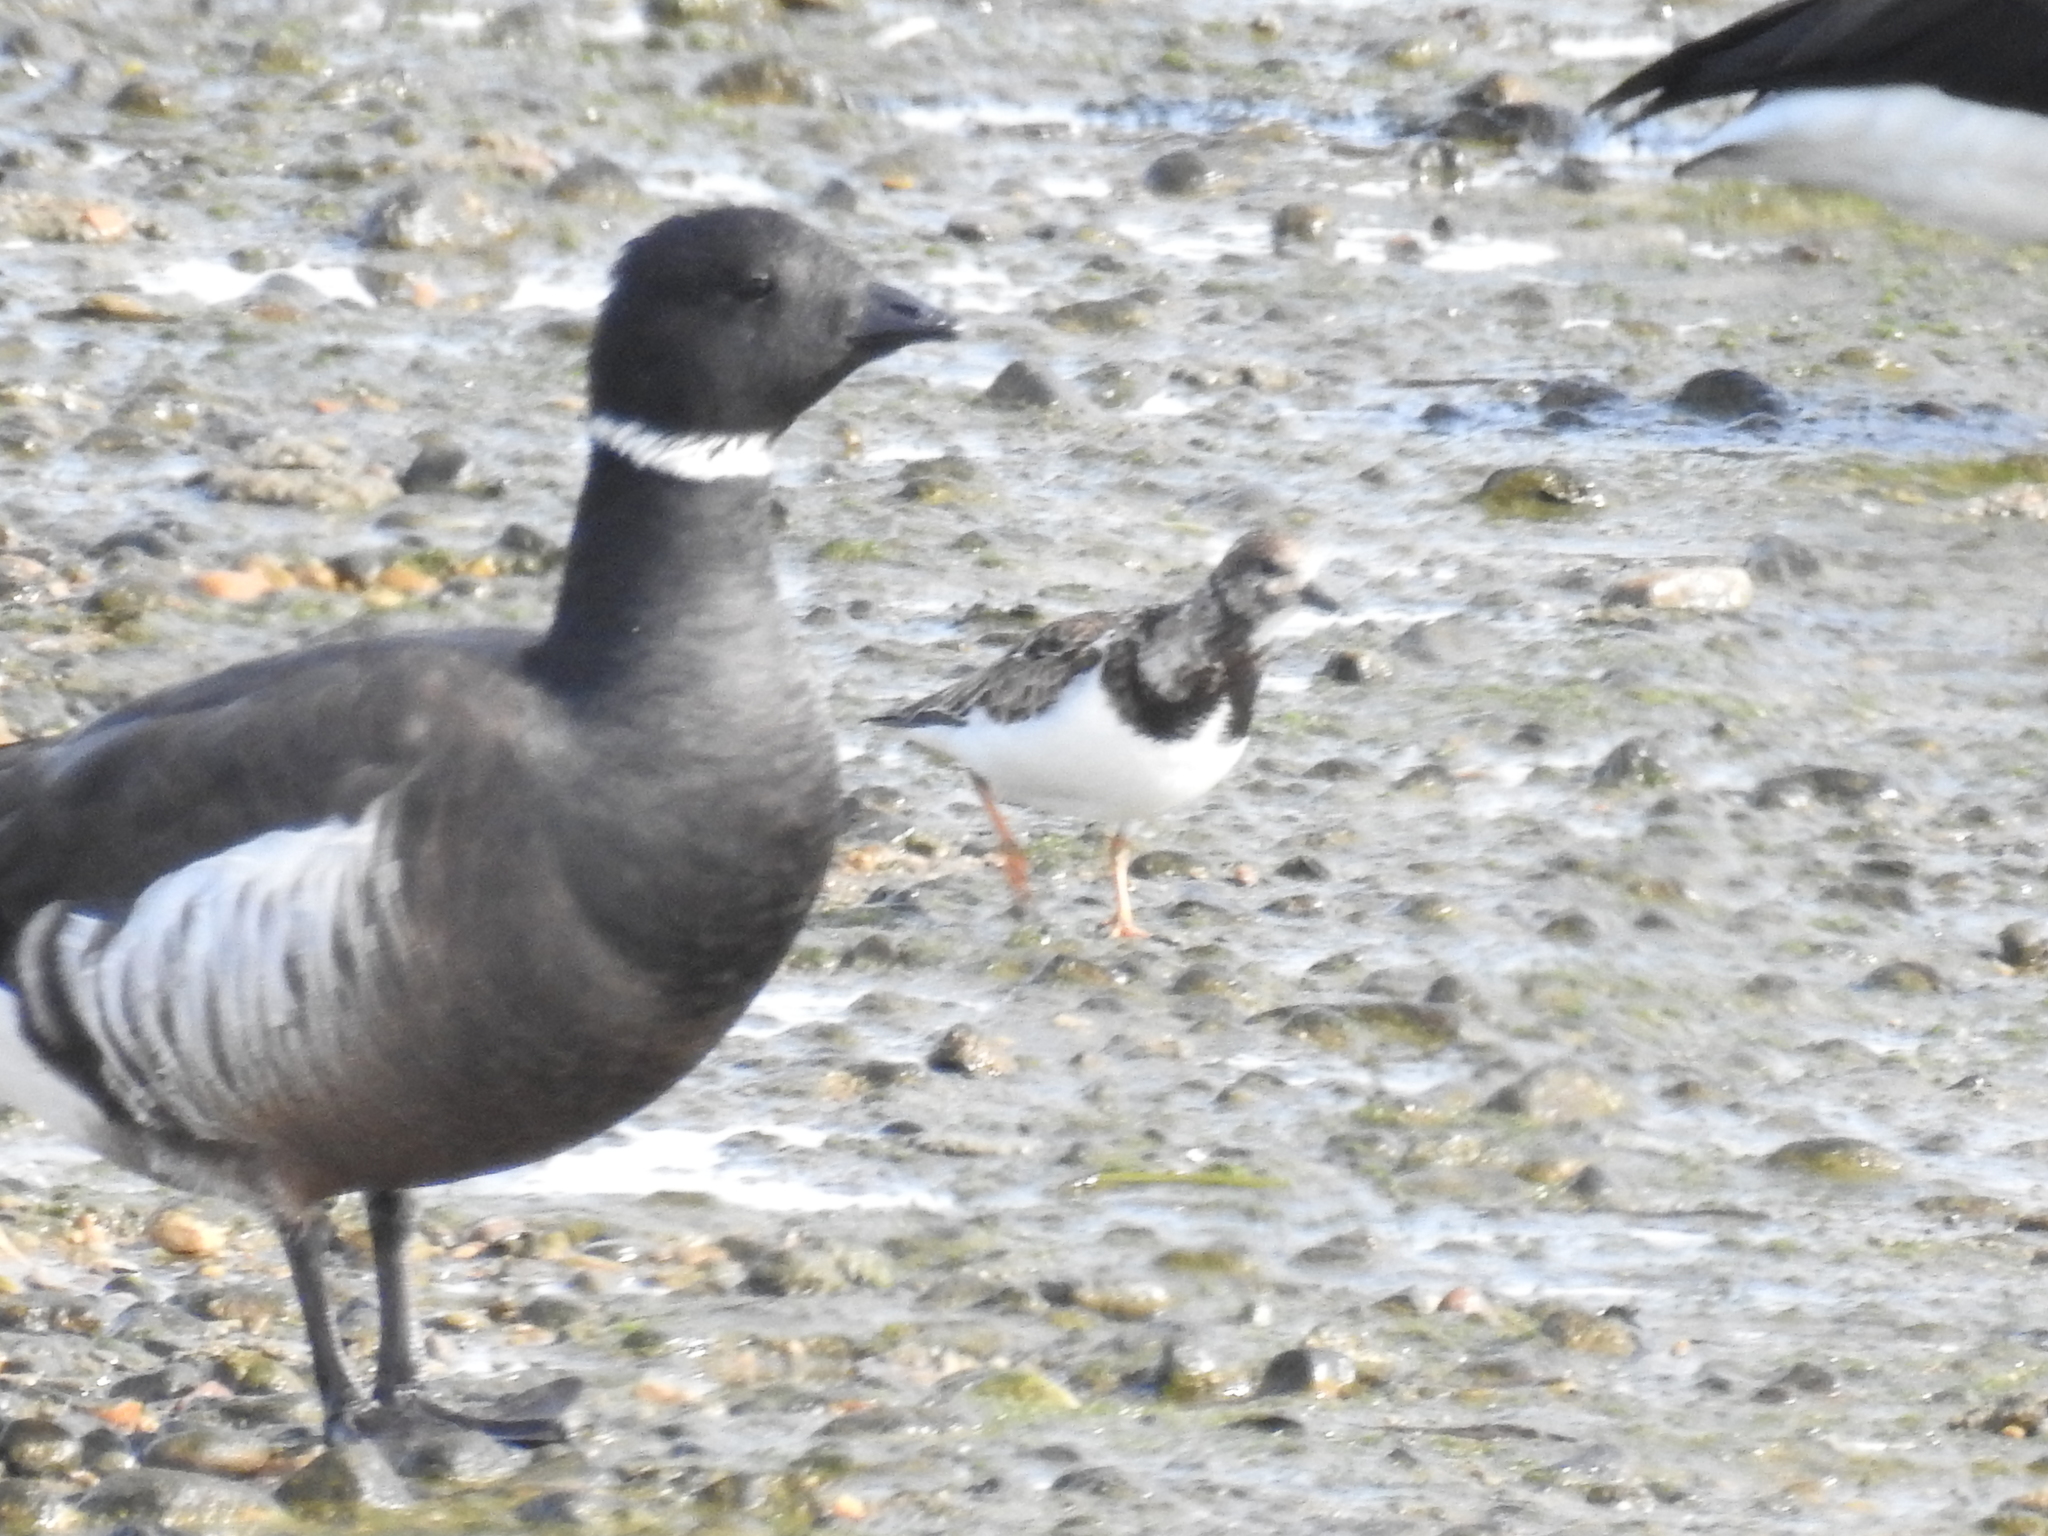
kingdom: Animalia
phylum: Chordata
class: Aves
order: Charadriiformes
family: Scolopacidae
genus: Arenaria
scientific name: Arenaria interpres
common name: Ruddy turnstone
